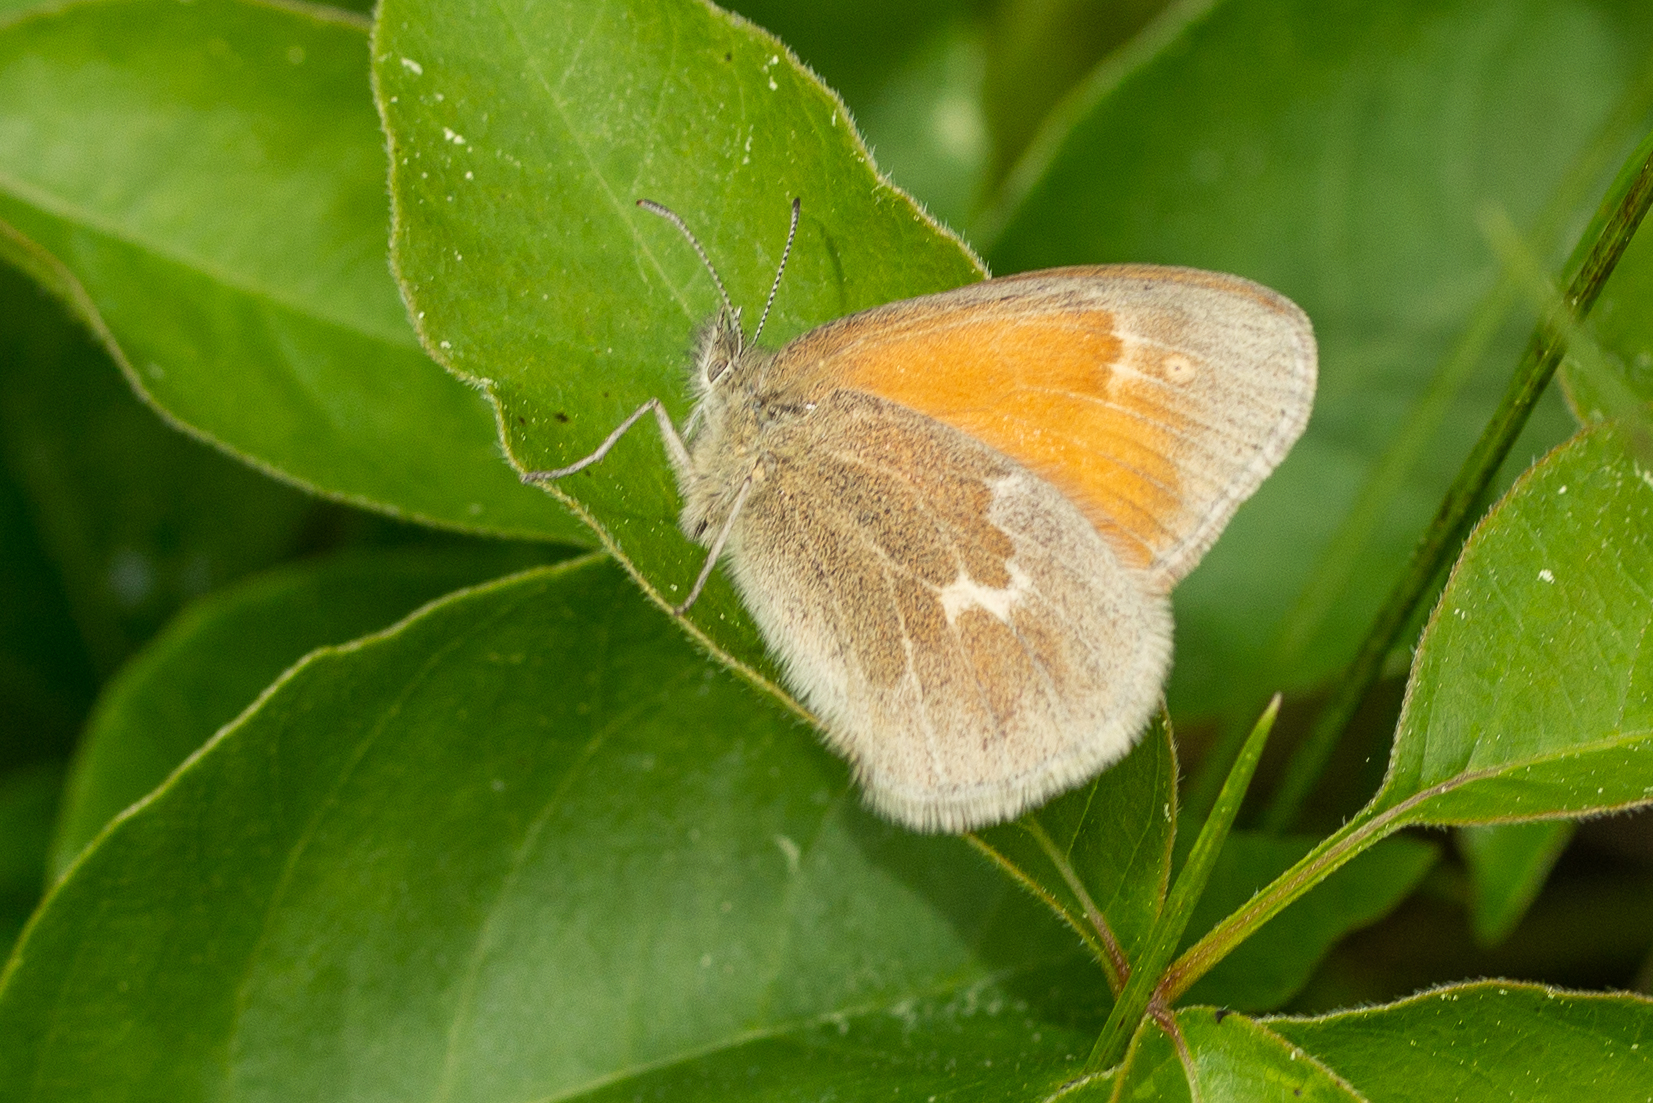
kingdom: Animalia
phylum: Arthropoda
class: Insecta
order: Lepidoptera
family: Nymphalidae
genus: Coenonympha
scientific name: Coenonympha california
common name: Common ringlet
